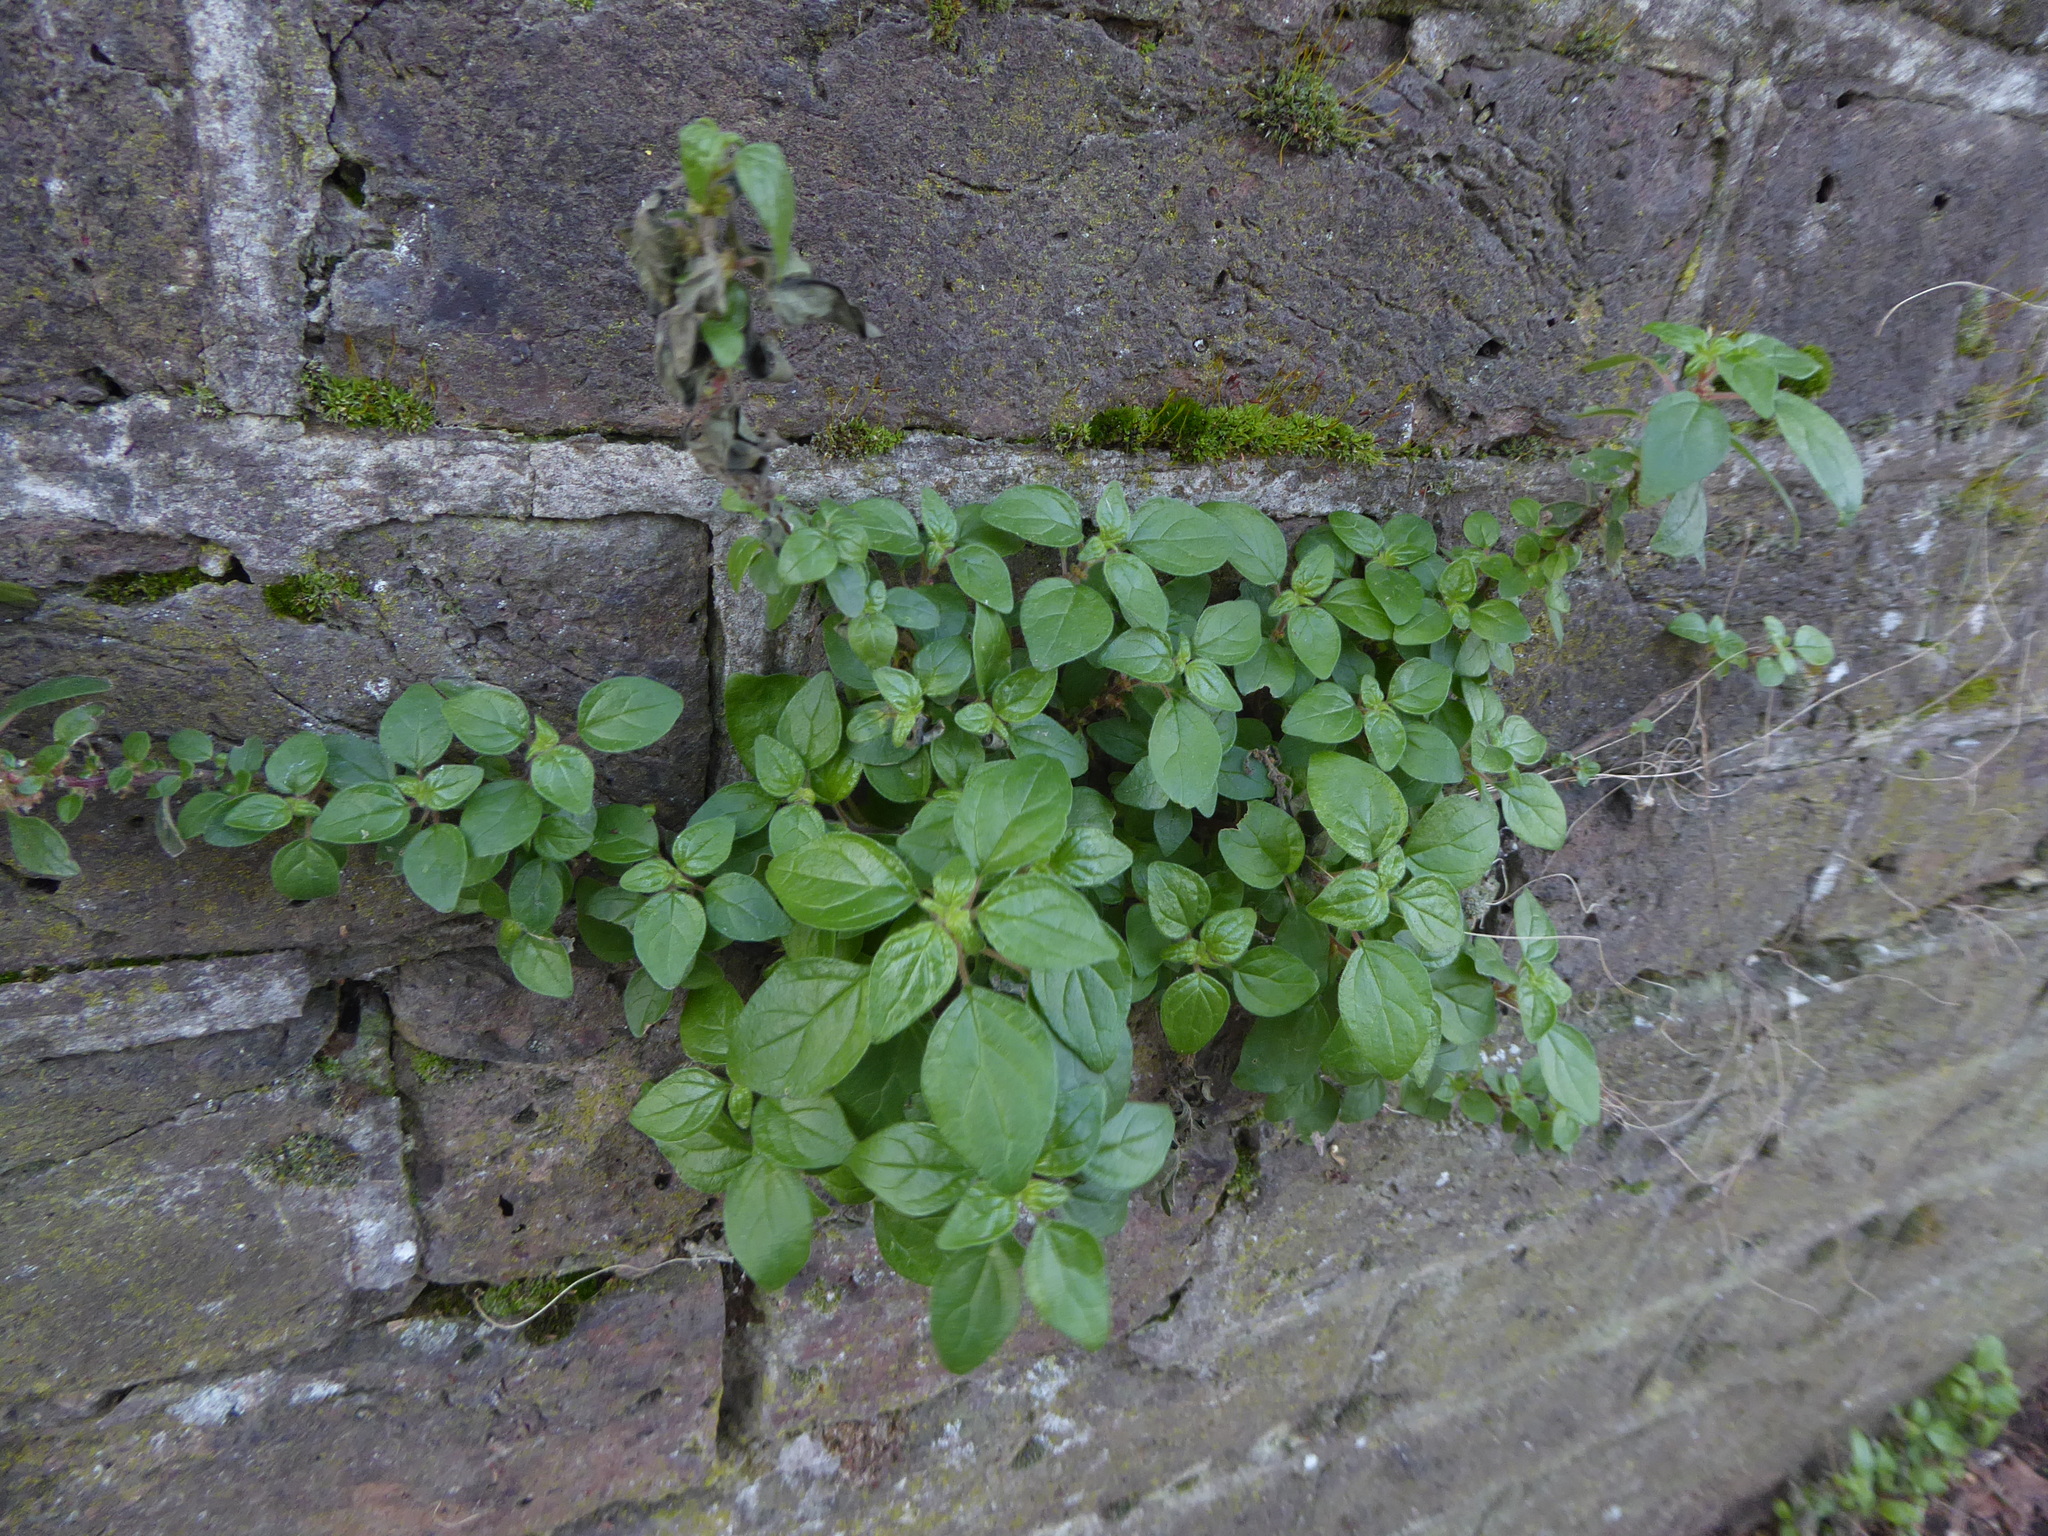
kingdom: Plantae
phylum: Tracheophyta
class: Magnoliopsida
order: Rosales
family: Urticaceae
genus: Parietaria
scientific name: Parietaria judaica
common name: Pellitory-of-the-wall
